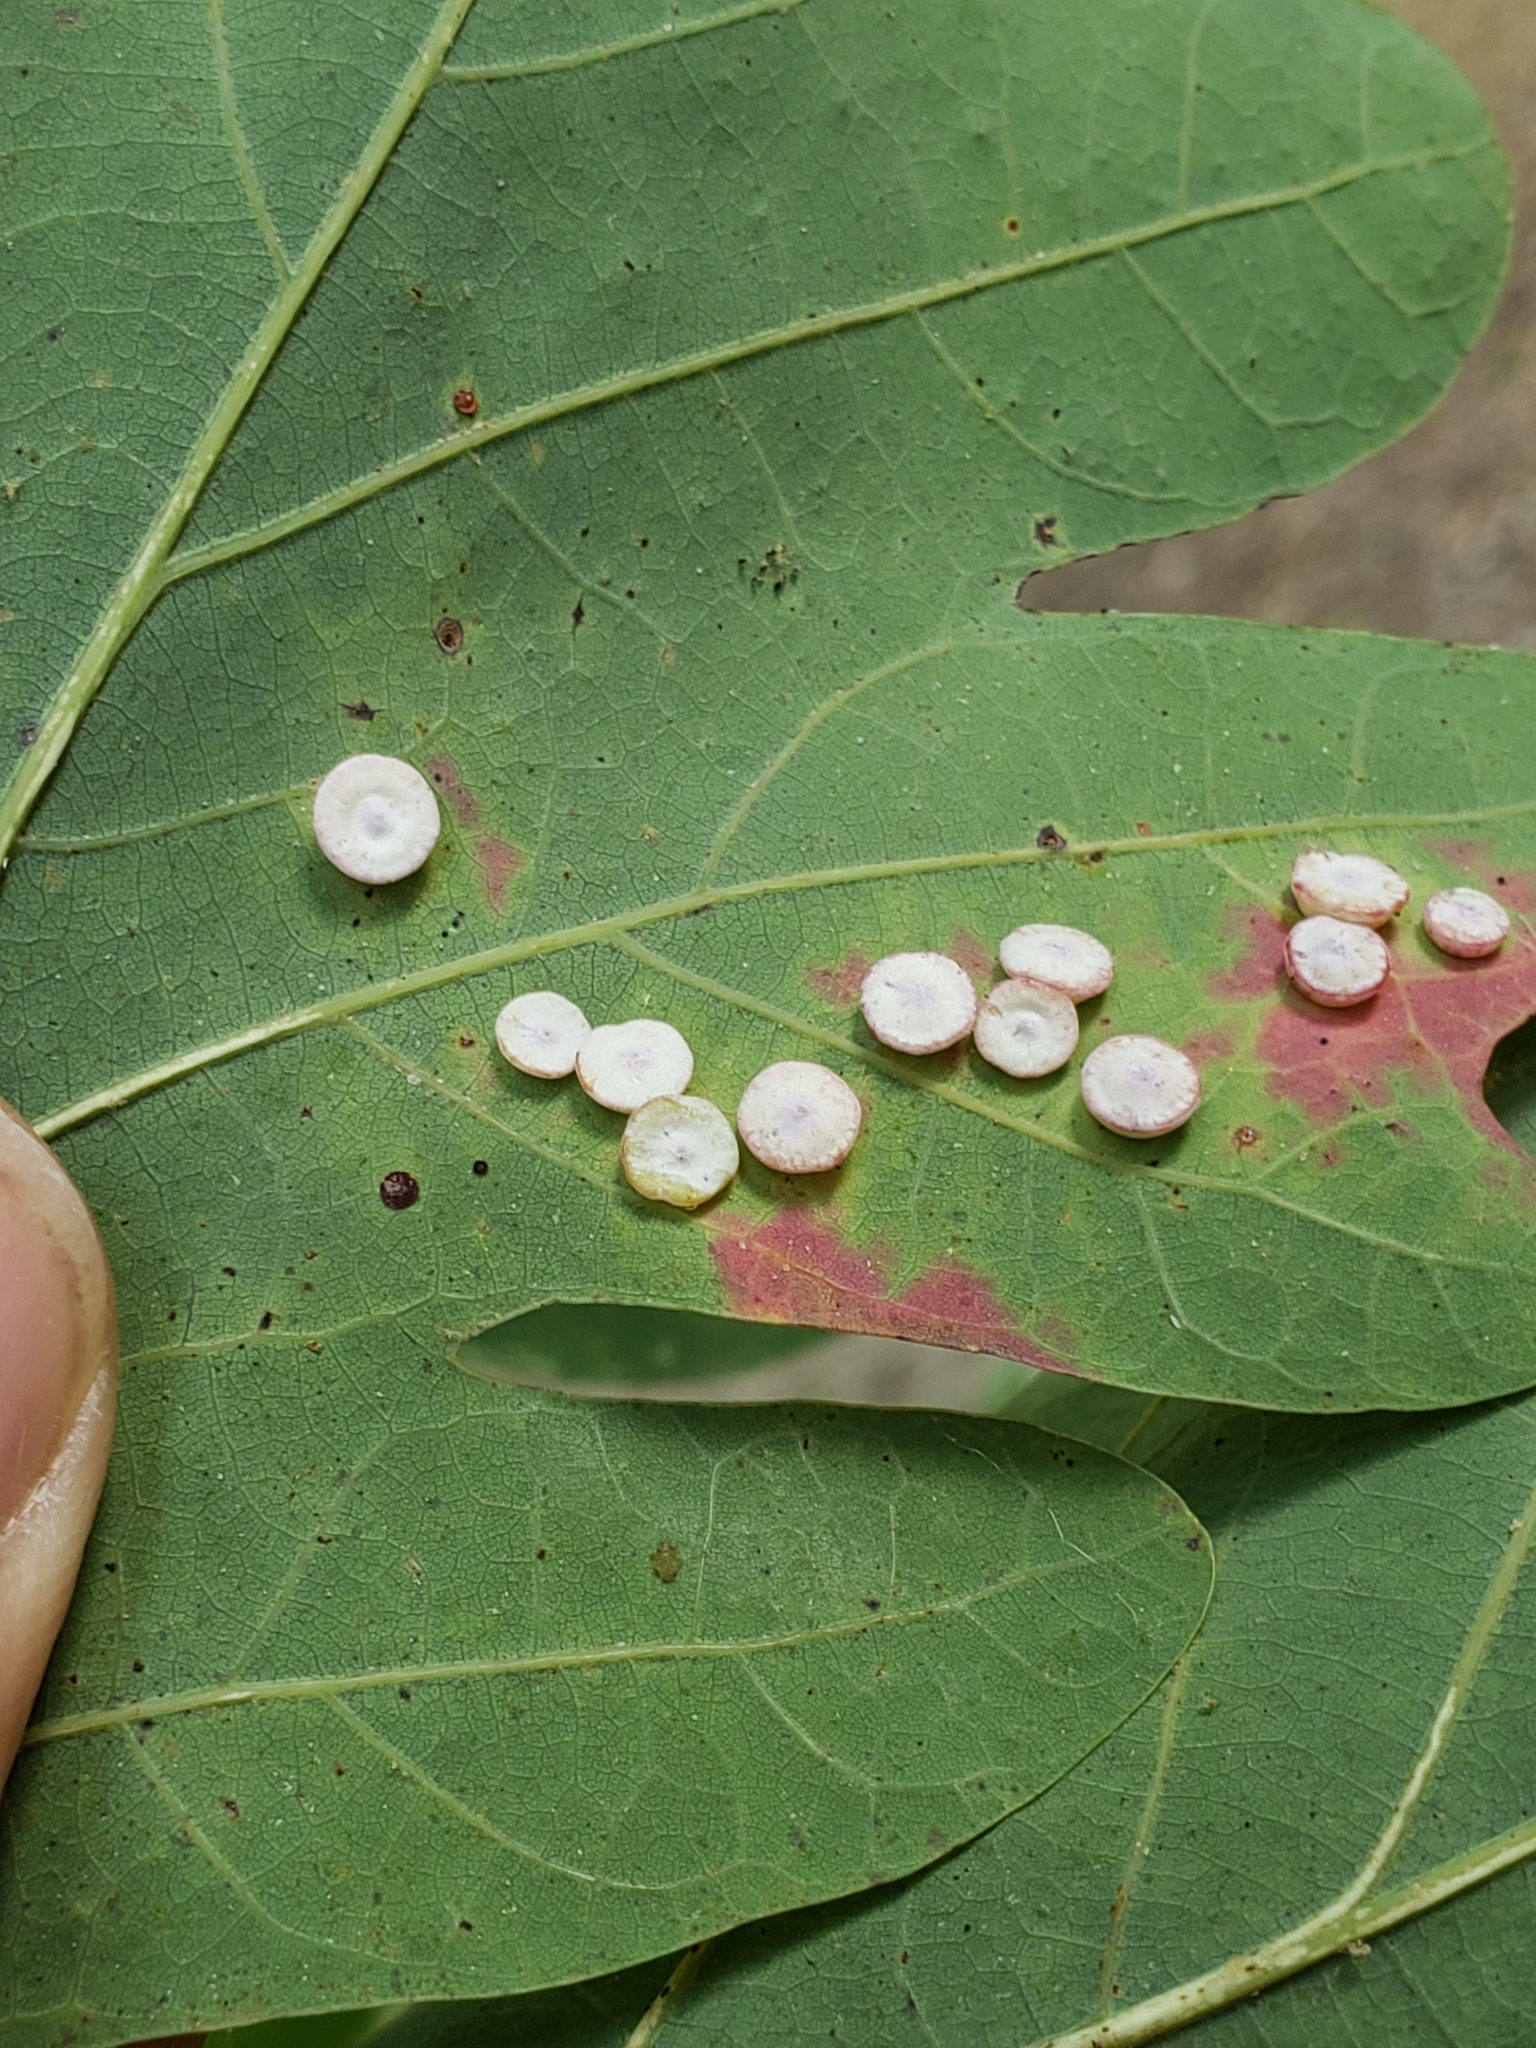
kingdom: Animalia
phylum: Arthropoda
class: Insecta
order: Hymenoptera
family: Cynipidae
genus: Phylloteras
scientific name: Phylloteras poculum
